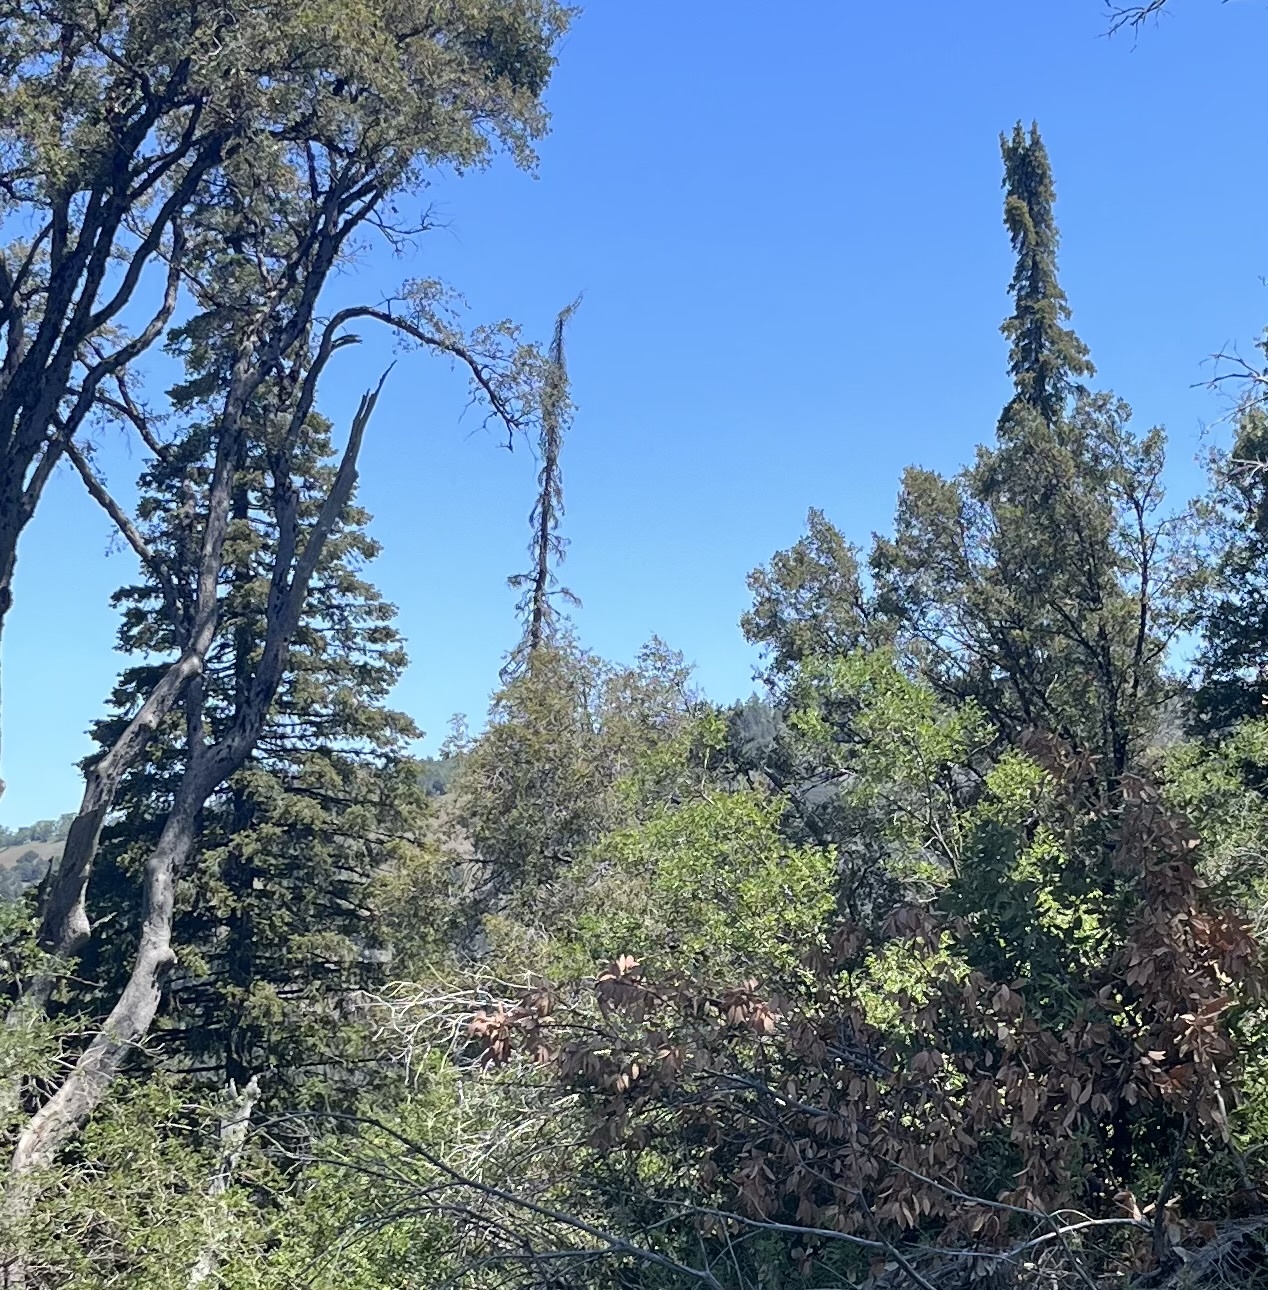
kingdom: Plantae
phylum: Tracheophyta
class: Pinopsida
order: Pinales
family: Pinaceae
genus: Abies
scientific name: Abies bracteata
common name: Bristlecone fir
